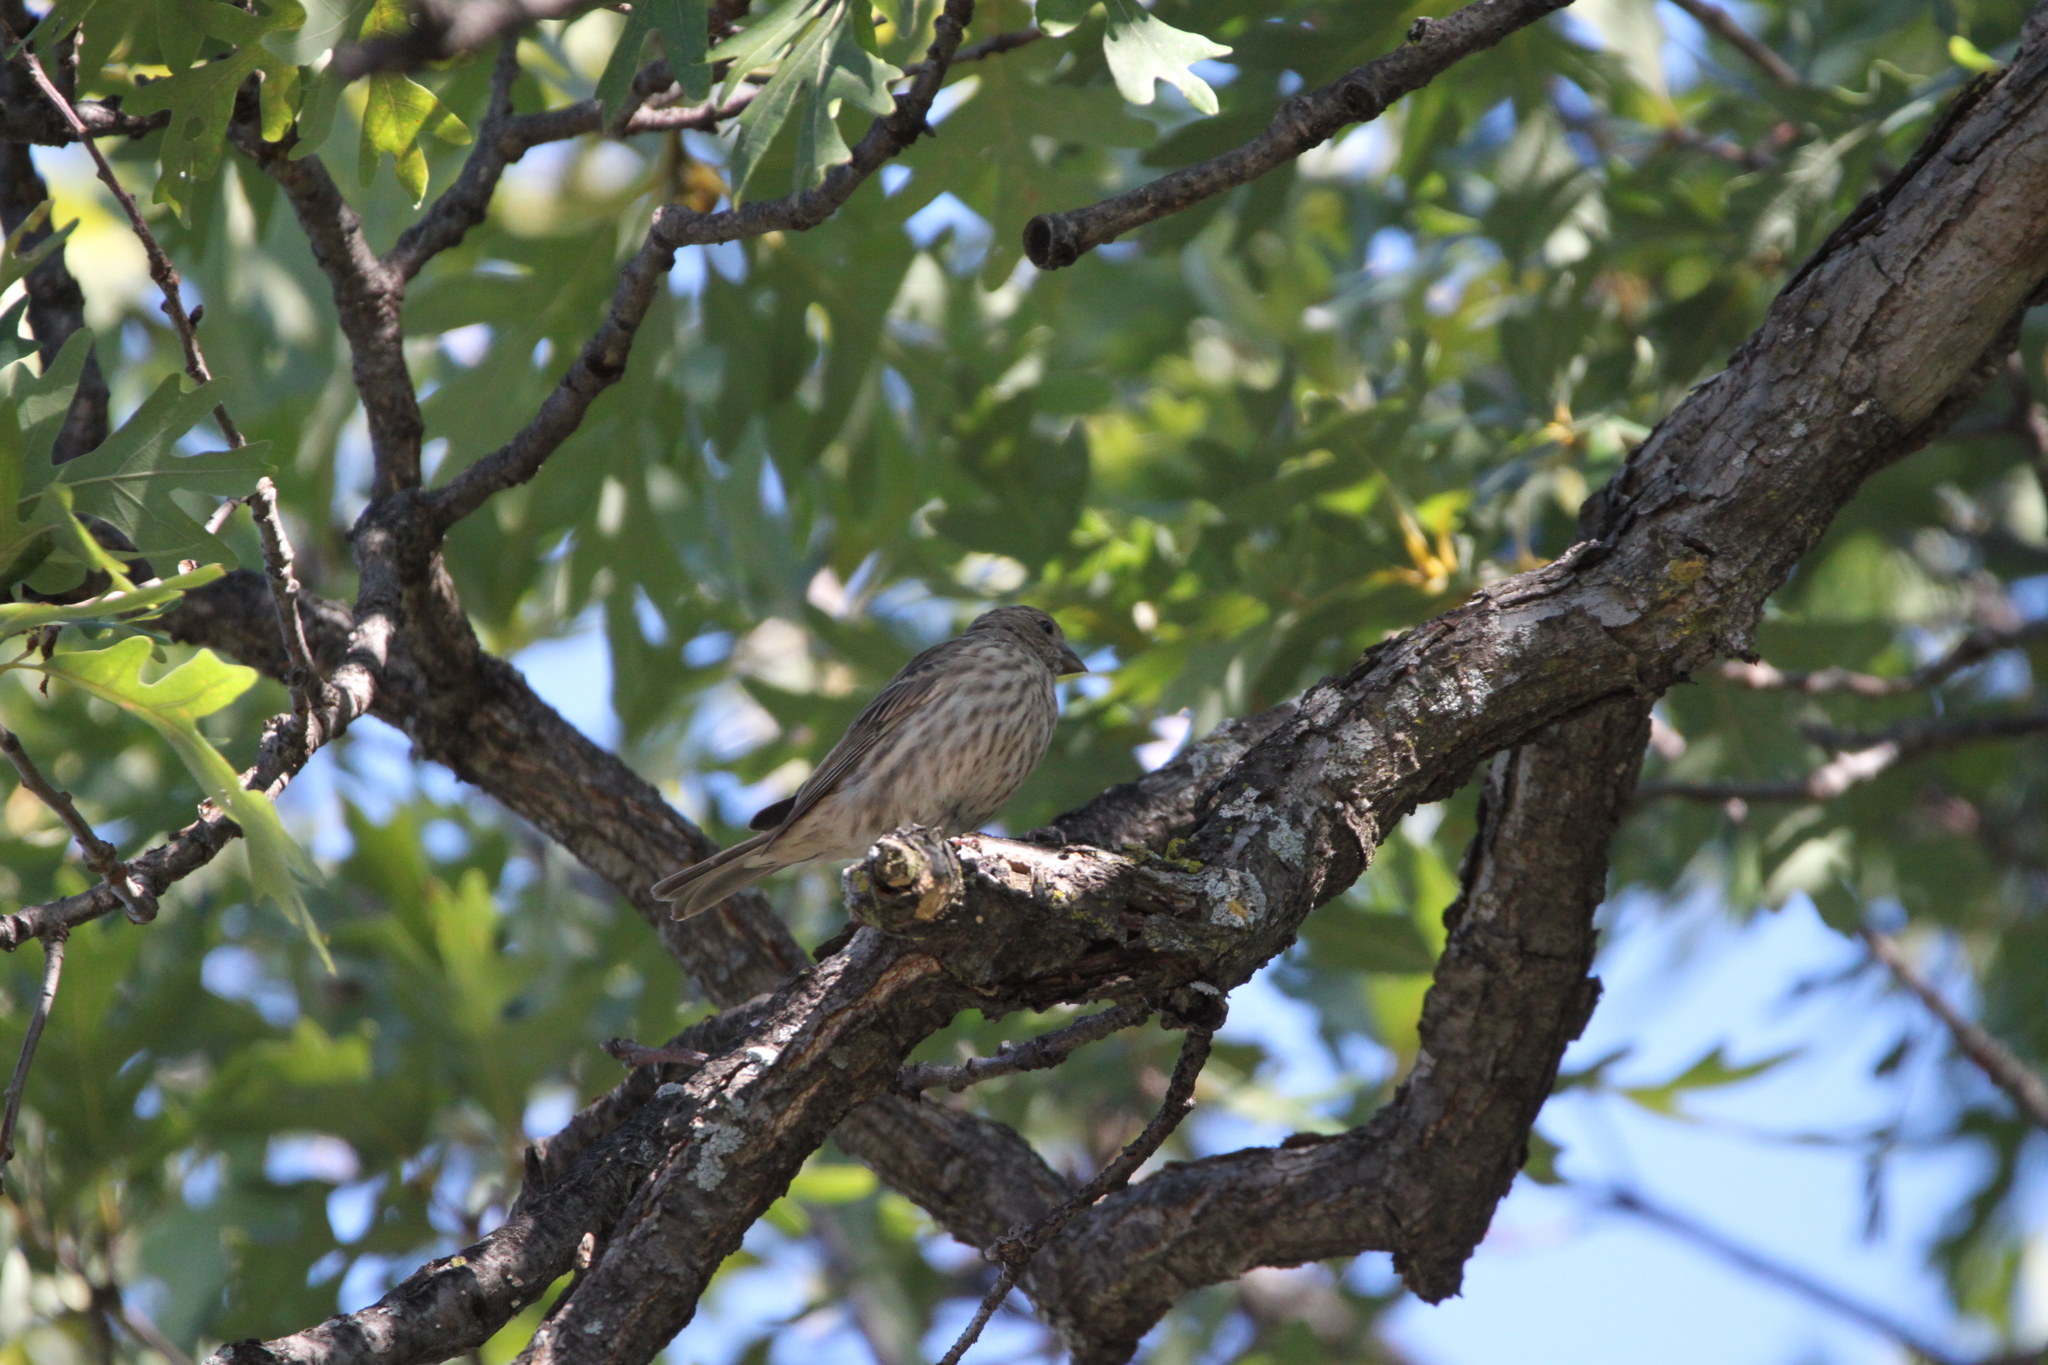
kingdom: Animalia
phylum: Chordata
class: Aves
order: Passeriformes
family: Fringillidae
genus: Haemorhous
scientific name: Haemorhous mexicanus
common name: House finch
